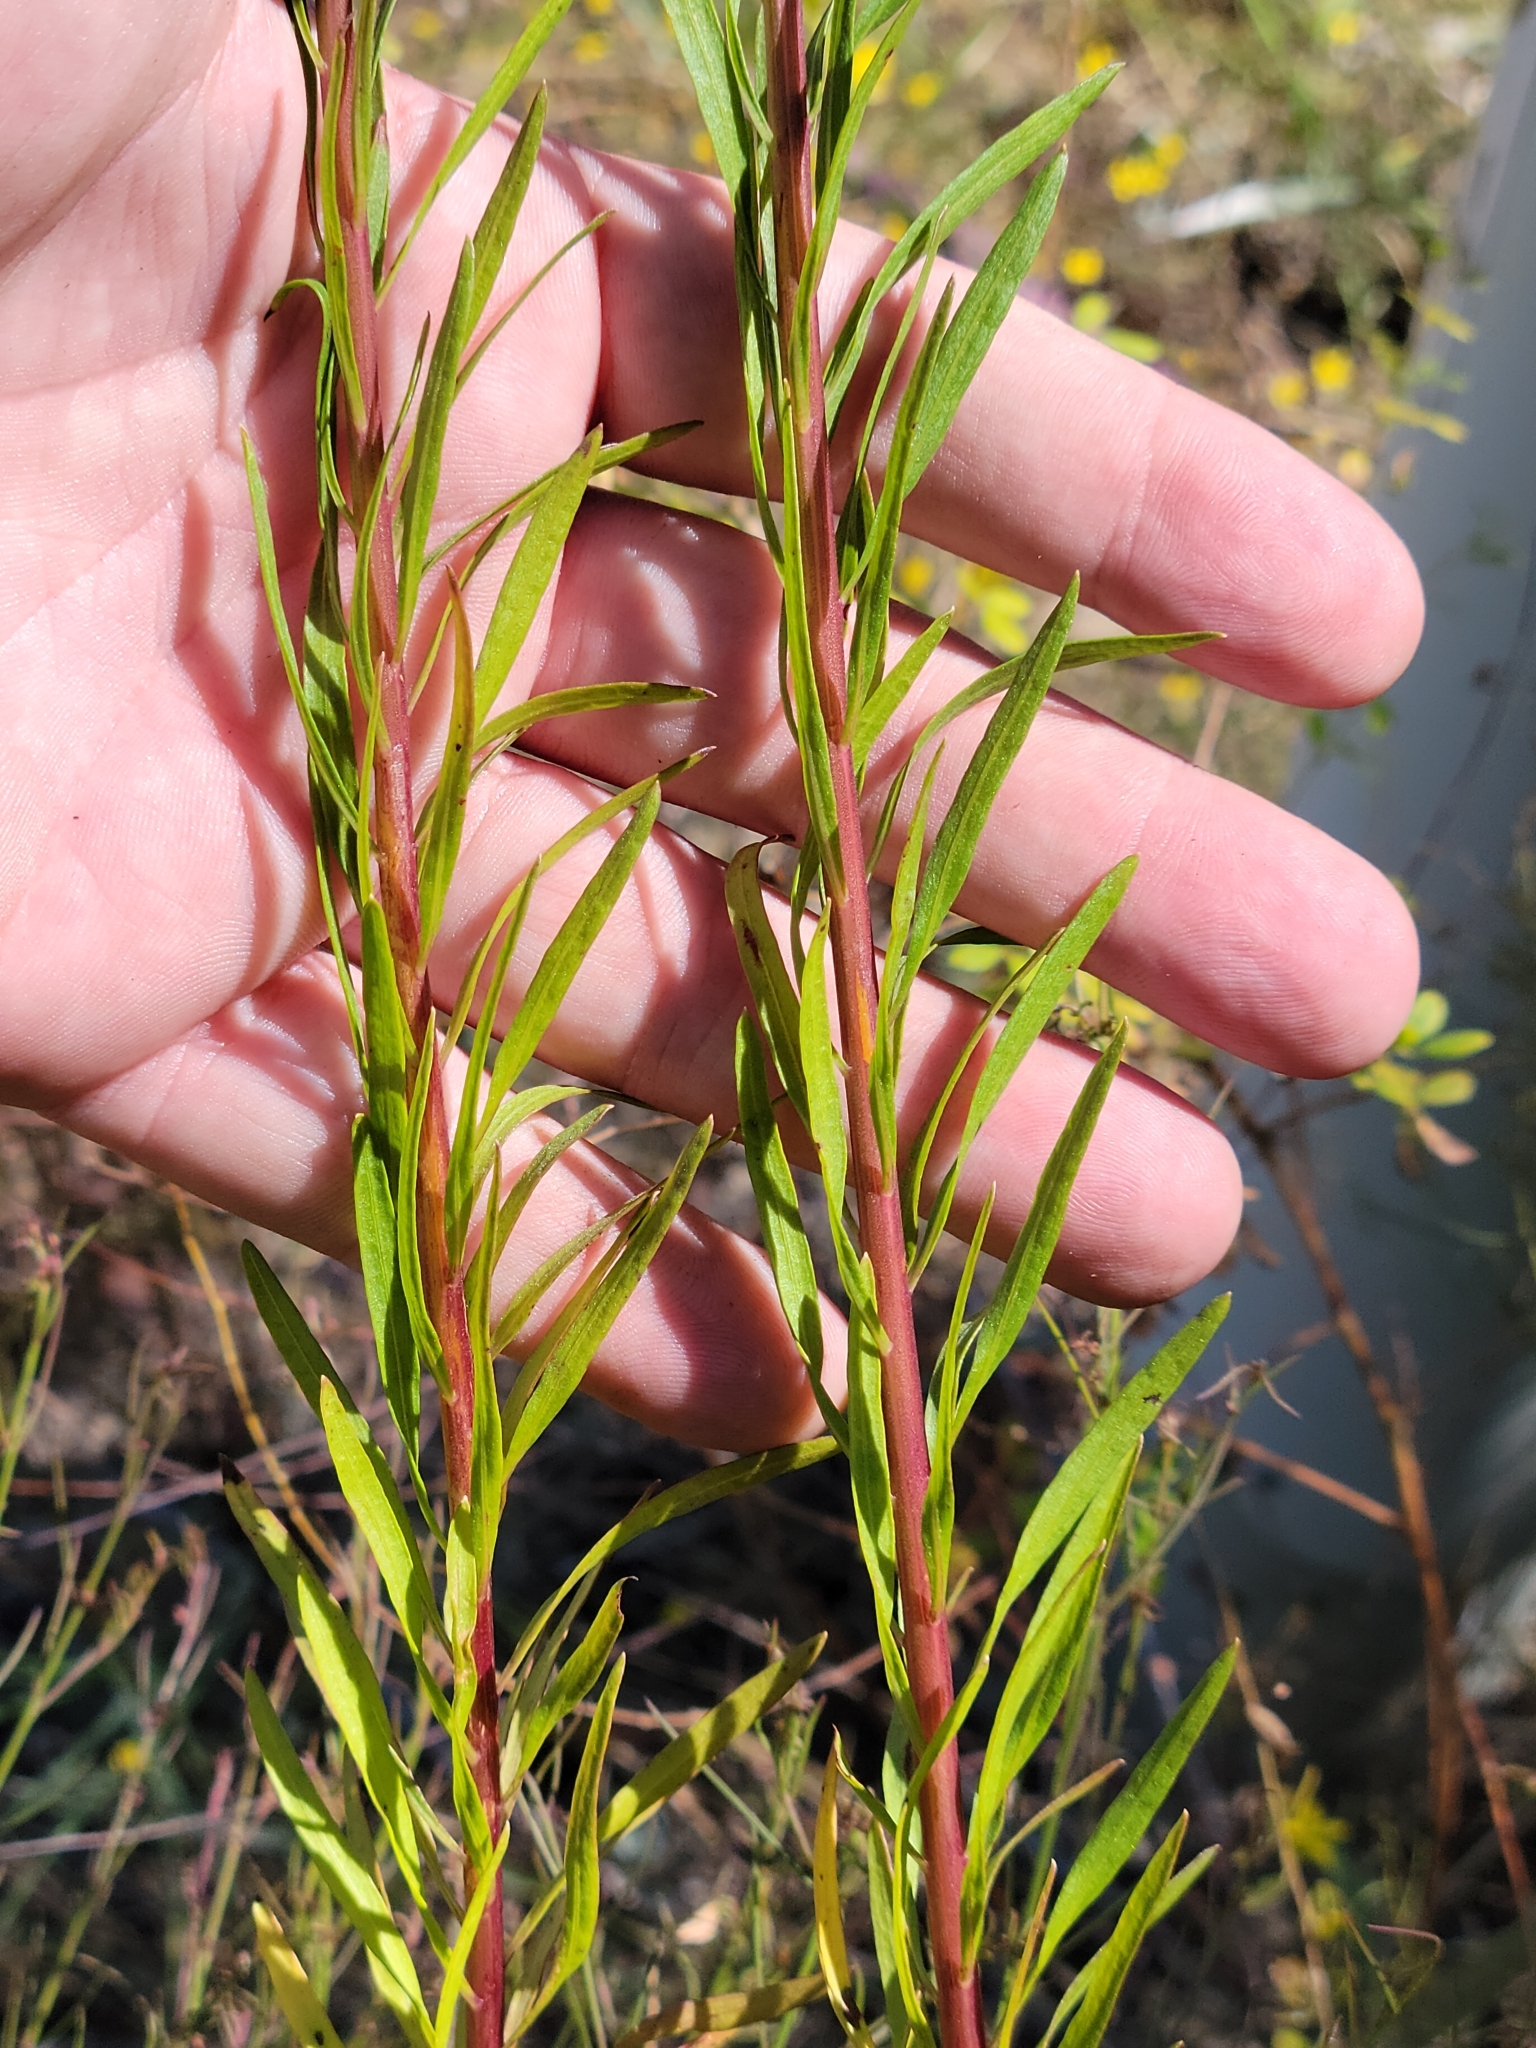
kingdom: Plantae
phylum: Tracheophyta
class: Magnoliopsida
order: Asterales
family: Asteraceae
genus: Chrysopsis
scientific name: Chrysopsis linearifolia
